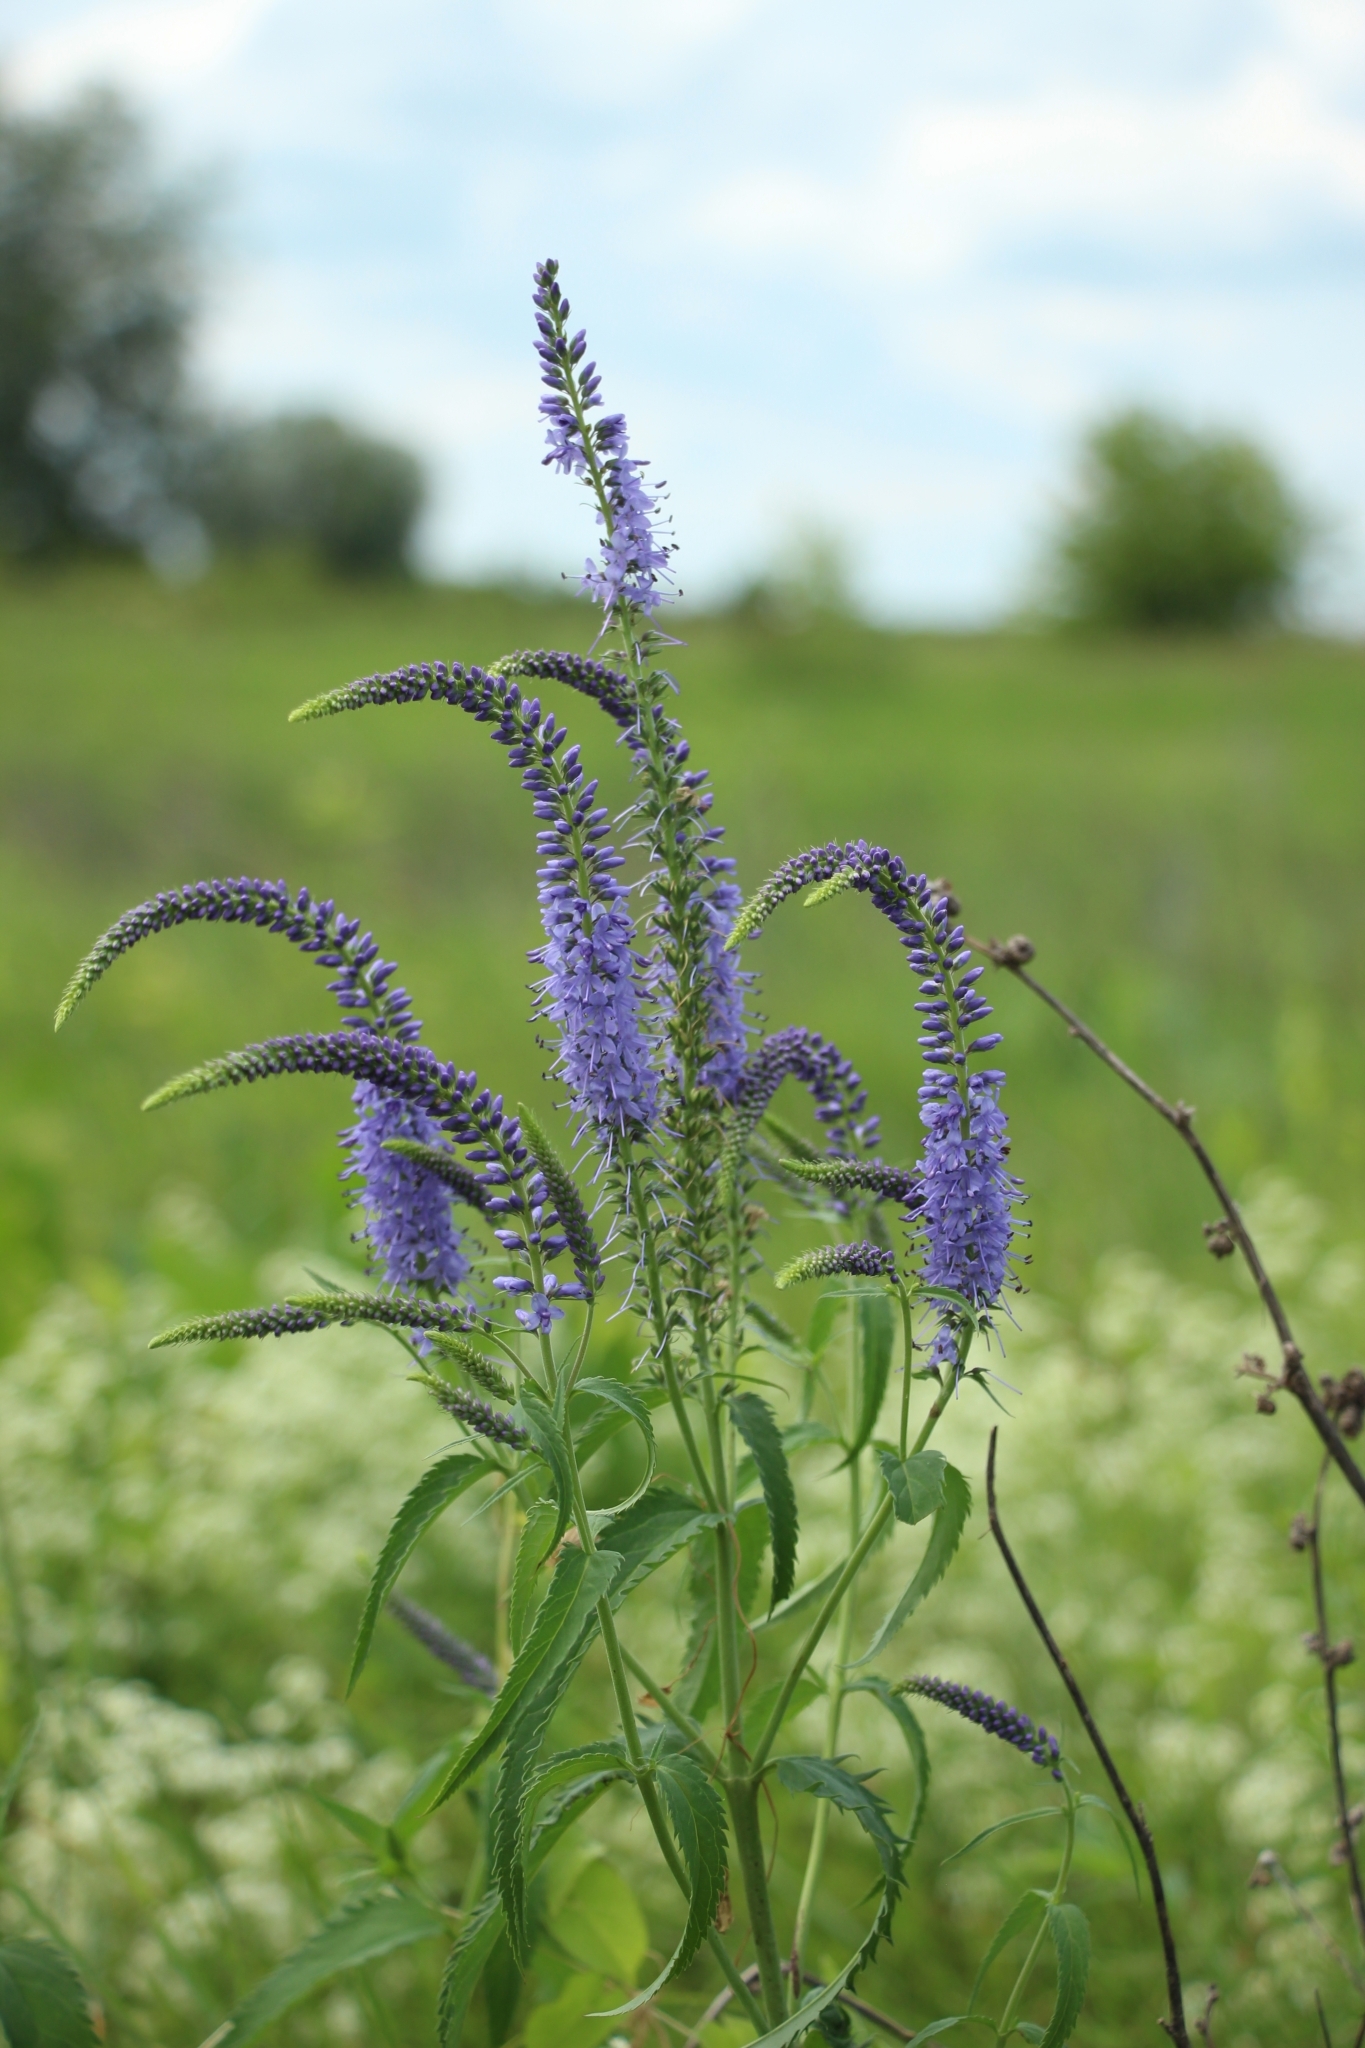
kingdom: Plantae
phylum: Tracheophyta
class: Magnoliopsida
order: Lamiales
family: Plantaginaceae
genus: Veronica
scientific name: Veronica longifolia
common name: Garden speedwell
